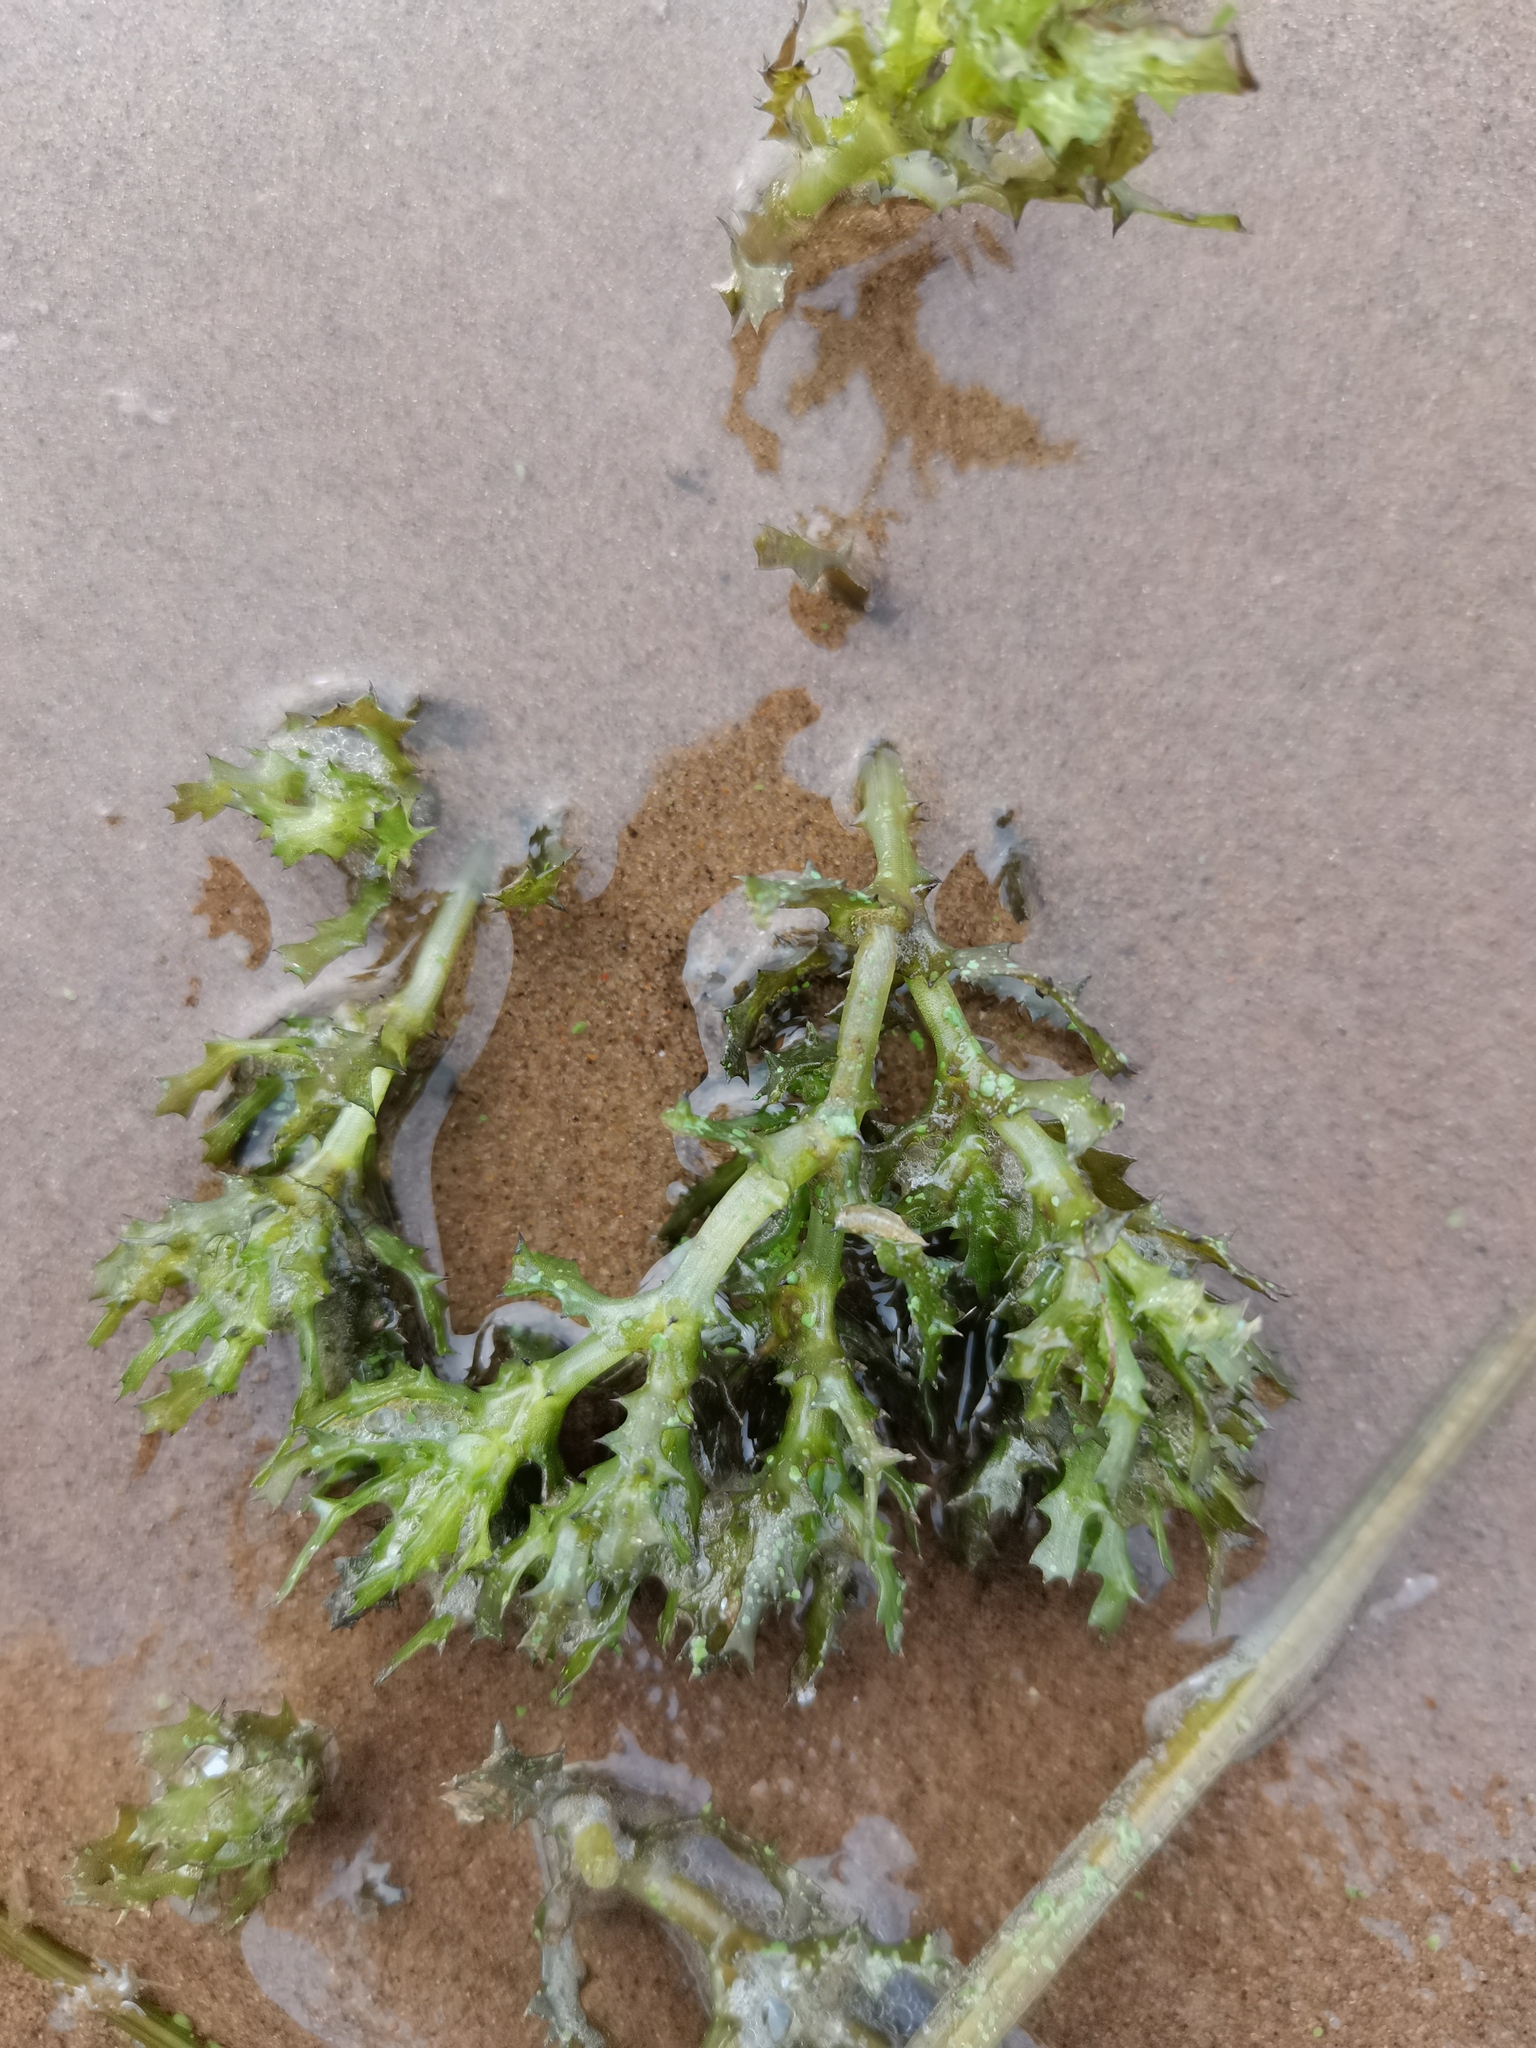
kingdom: Plantae
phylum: Tracheophyta
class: Liliopsida
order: Alismatales
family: Hydrocharitaceae
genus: Najas
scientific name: Najas marina
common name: Holly-leaved naiad
